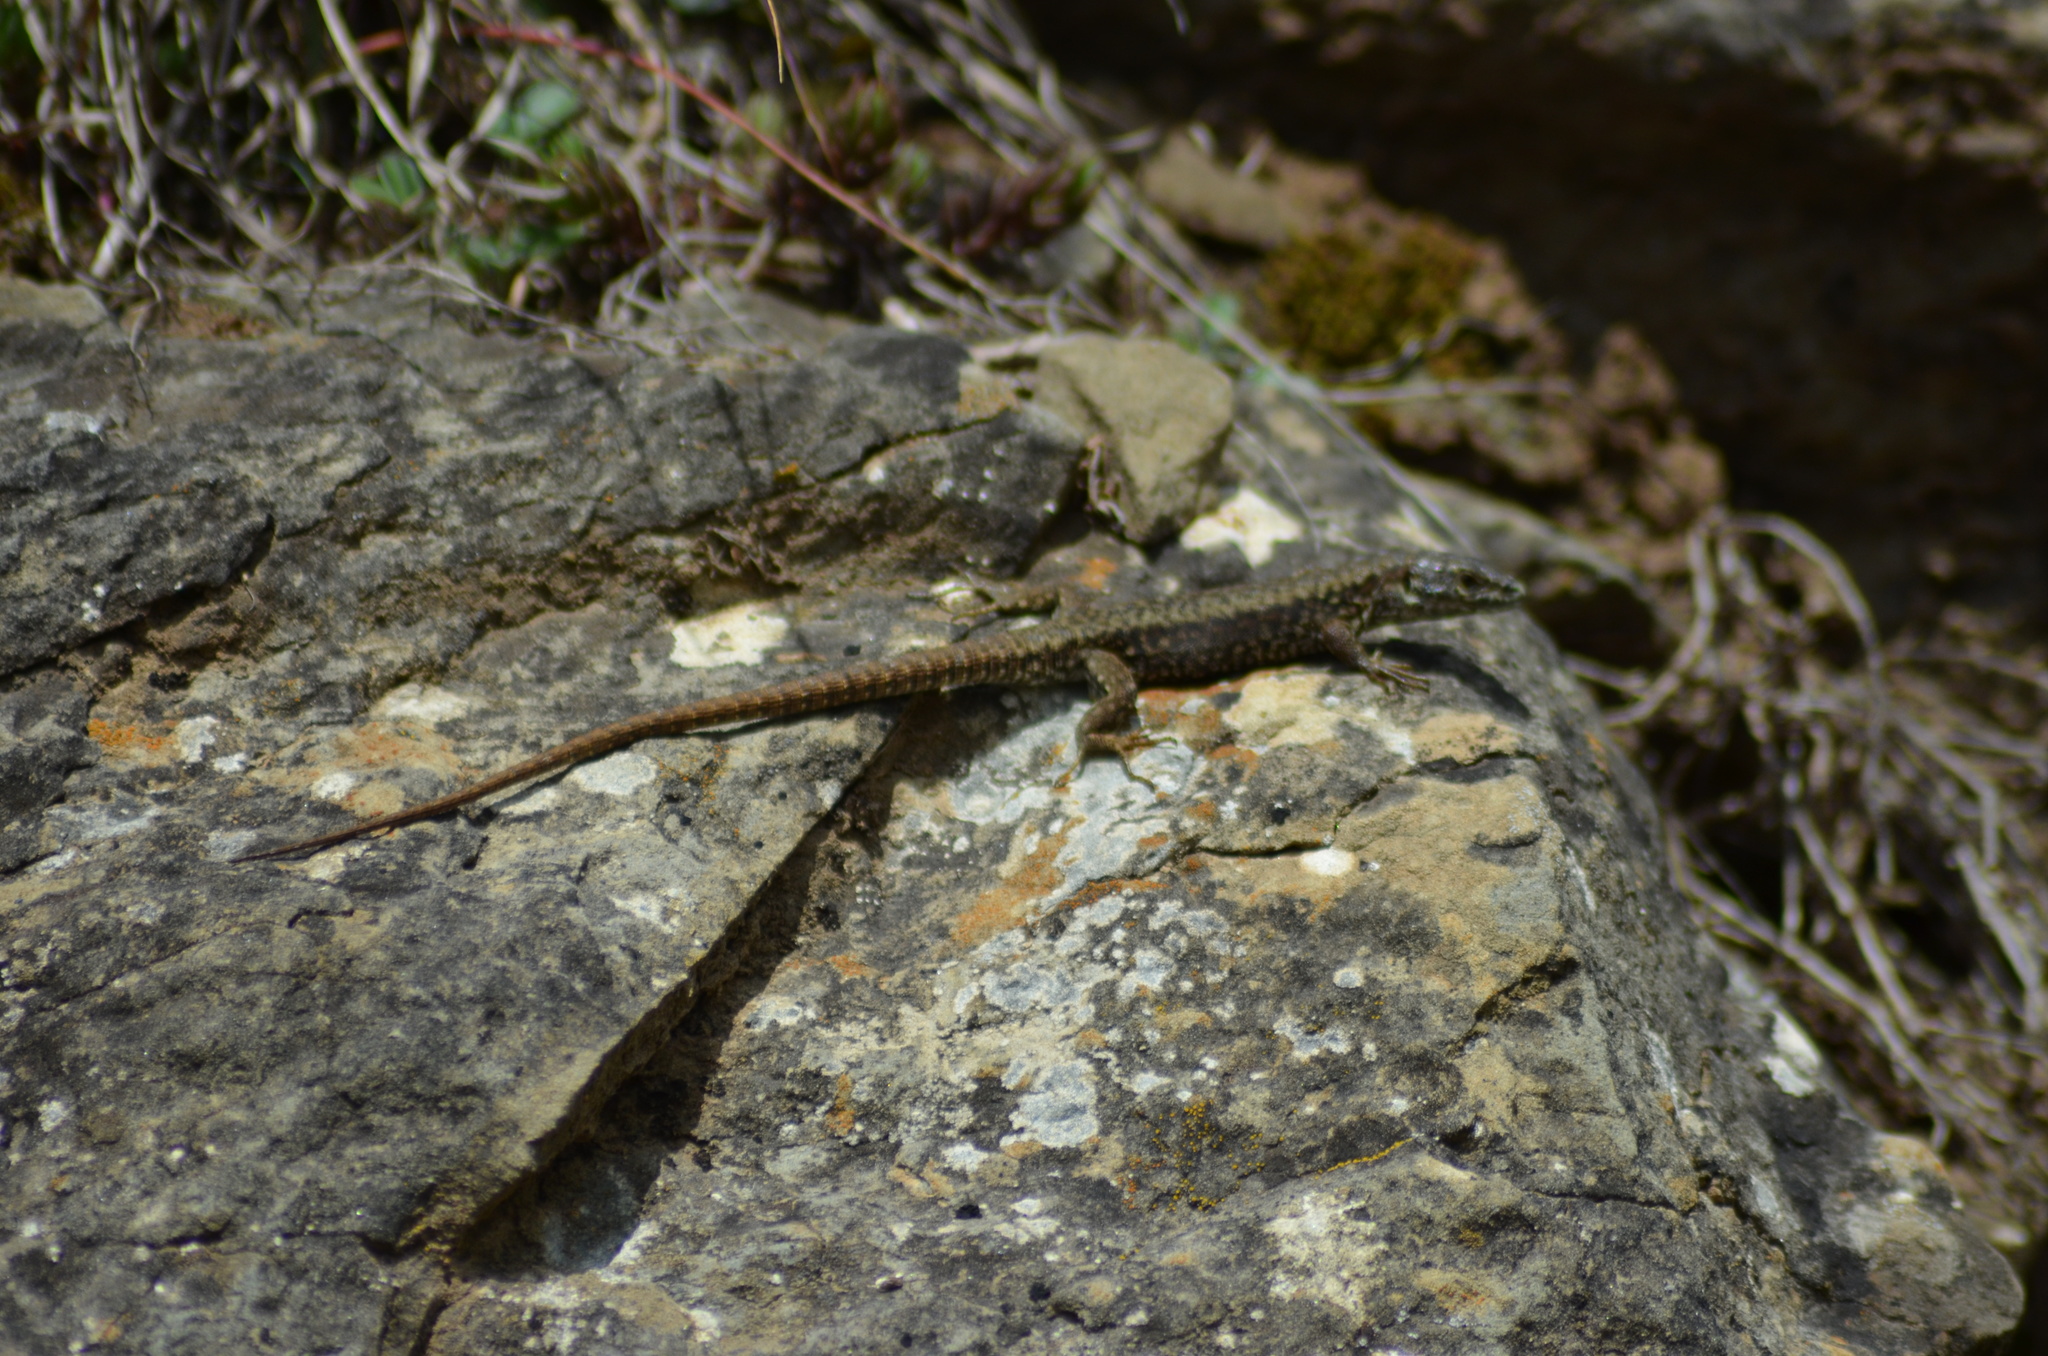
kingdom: Animalia
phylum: Chordata
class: Squamata
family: Lacertidae
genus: Podarcis
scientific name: Podarcis muralis
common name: Common wall lizard
